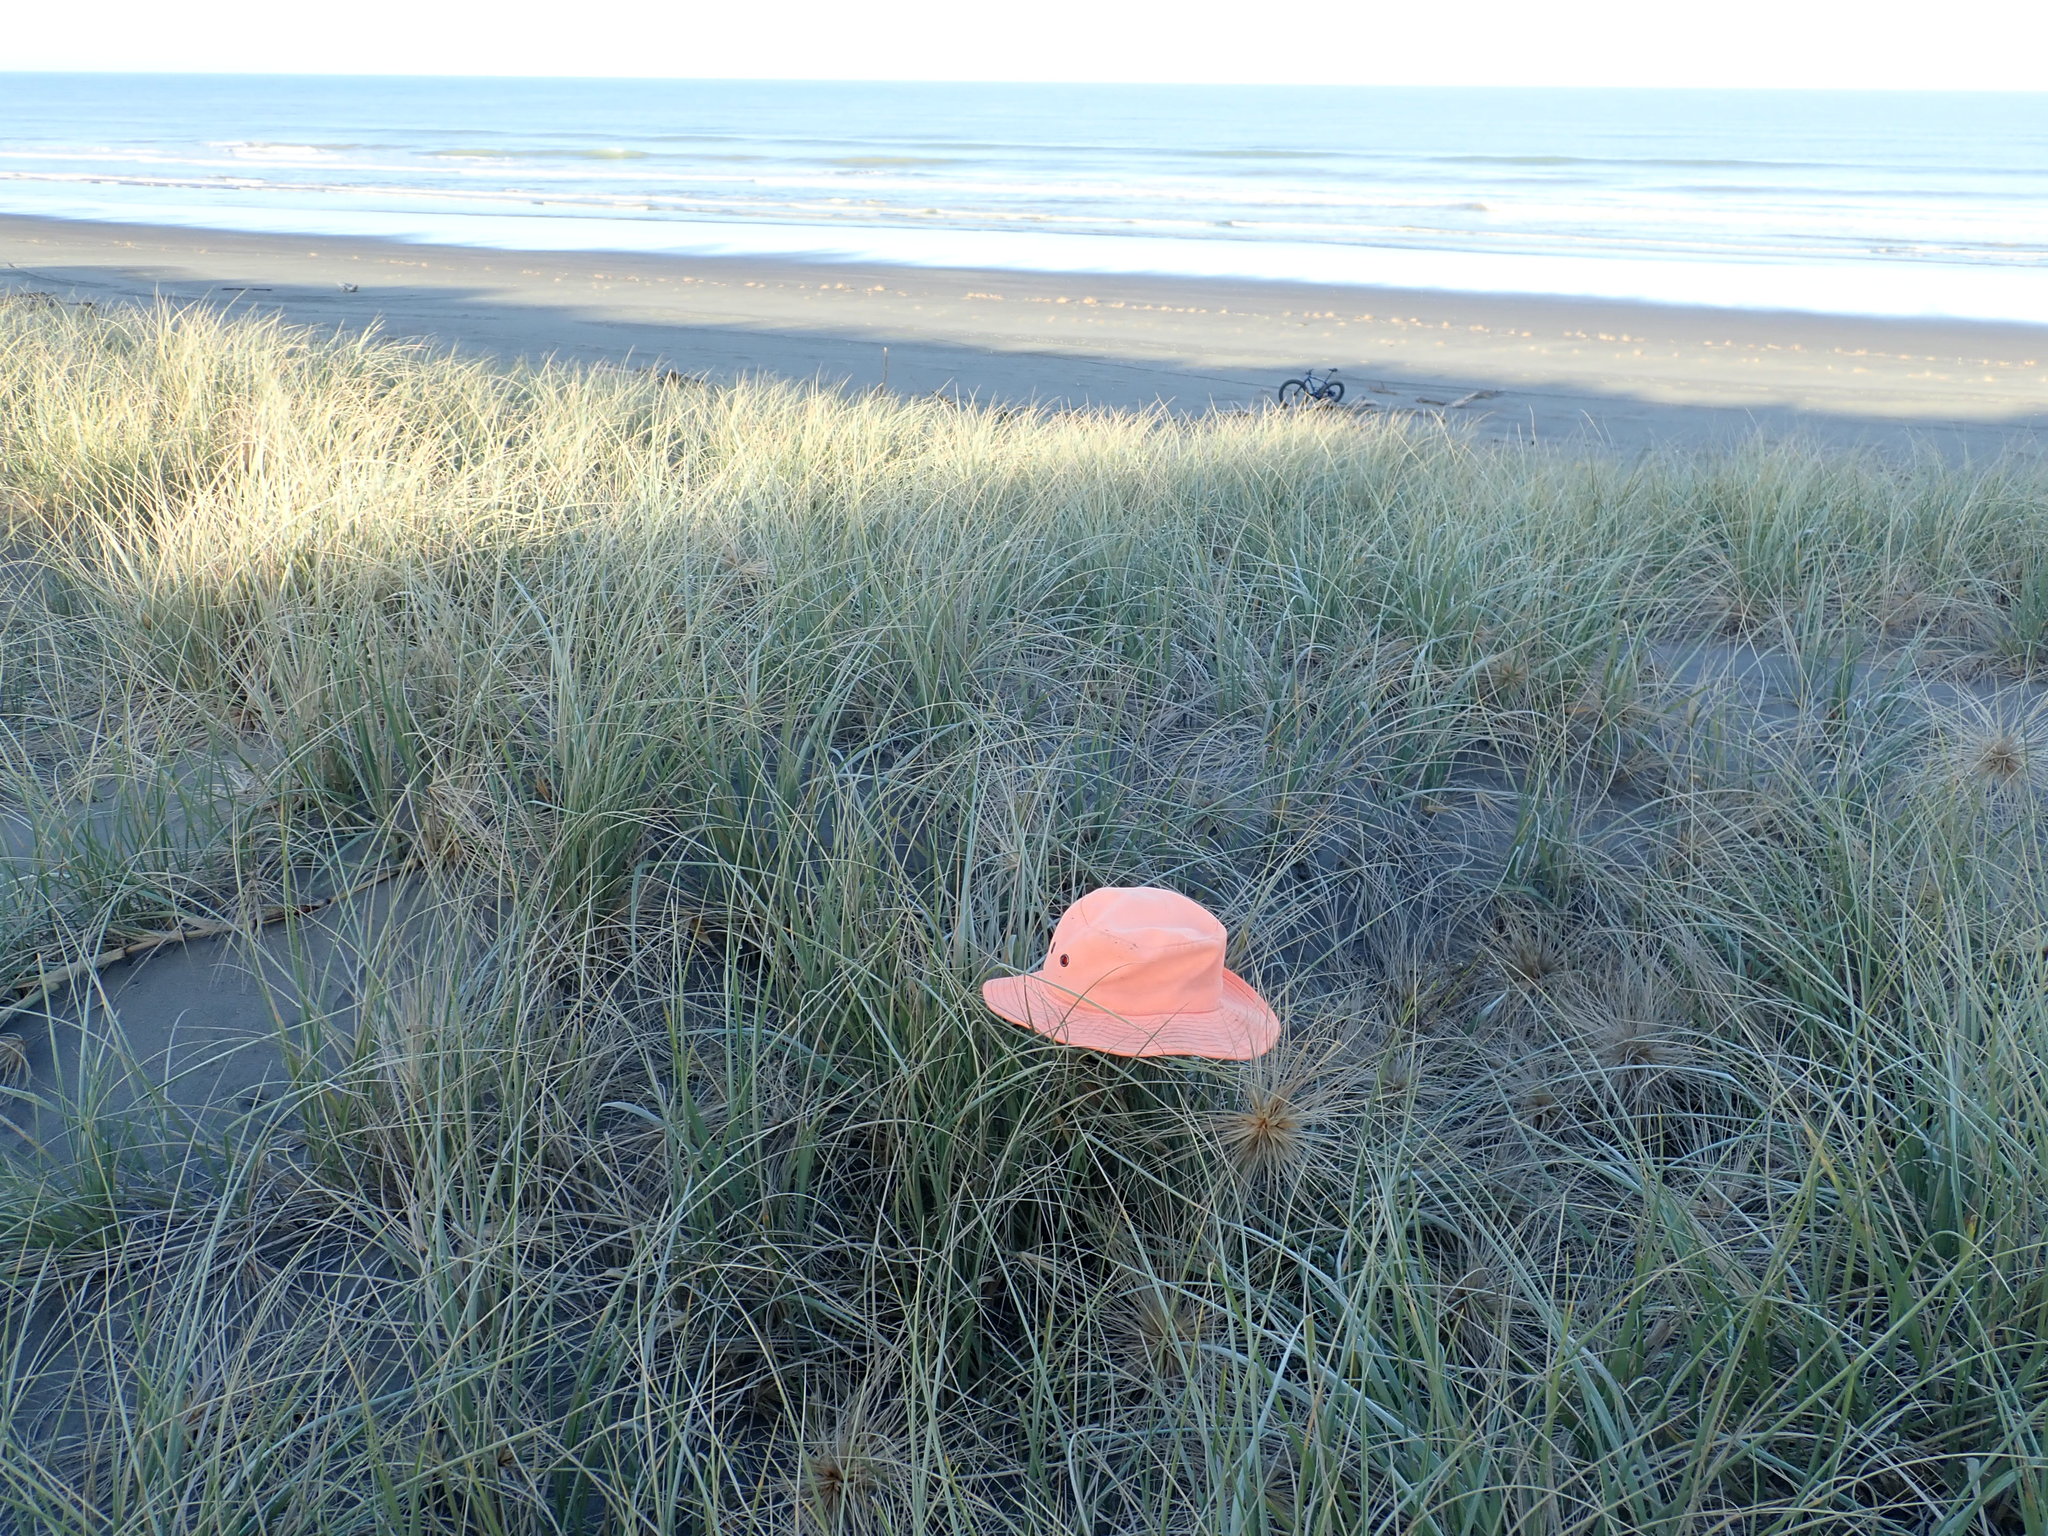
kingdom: Fungi
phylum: Basidiomycota
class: Agaricomycetes
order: Agaricales
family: Marasmiaceae
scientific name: Marasmiaceae
